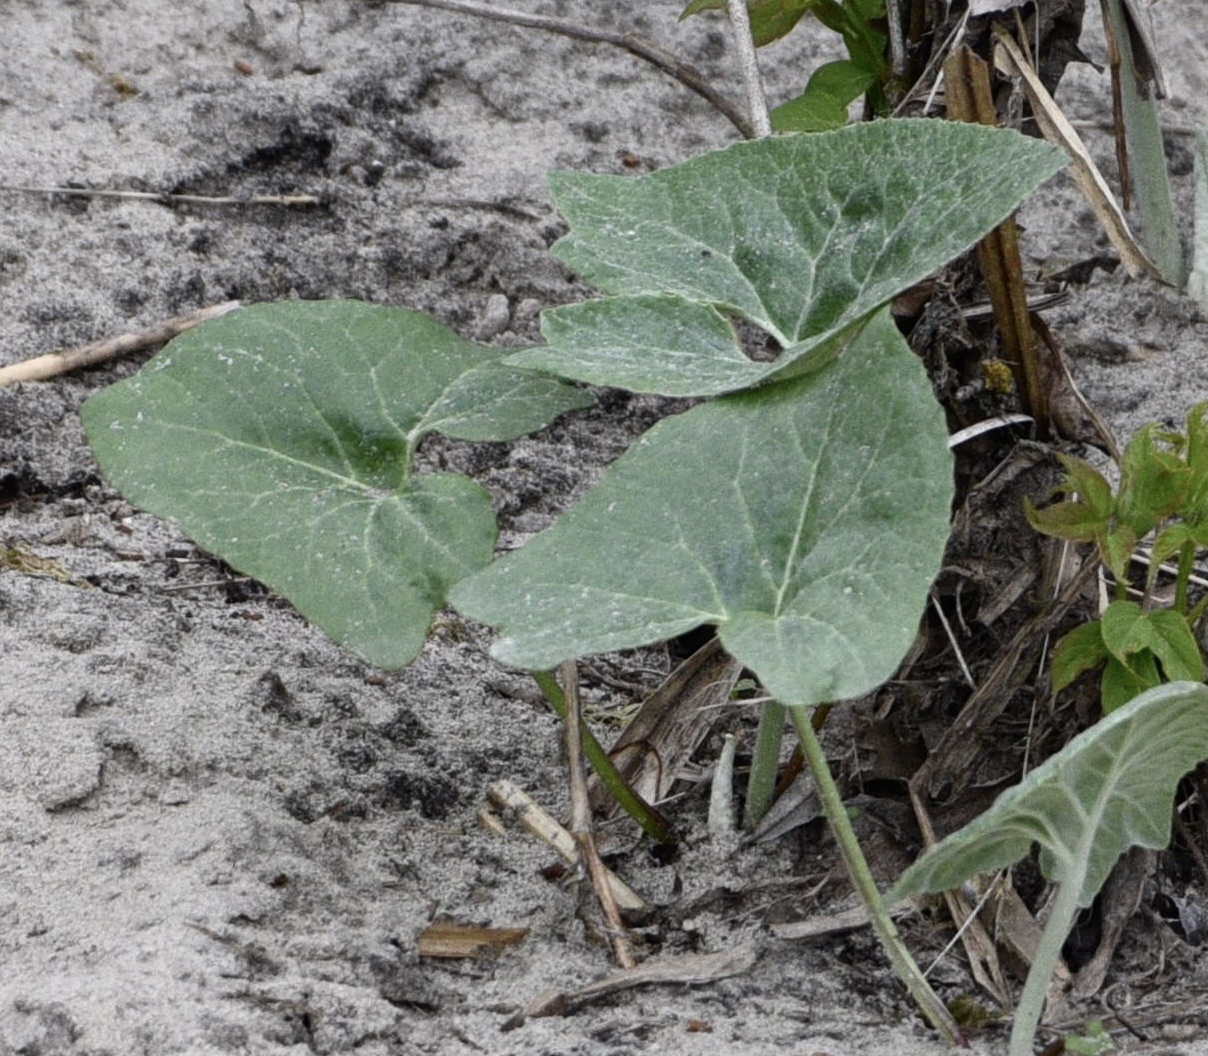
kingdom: Plantae
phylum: Tracheophyta
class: Magnoliopsida
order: Asterales
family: Asteraceae
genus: Petasites
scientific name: Petasites spurius
